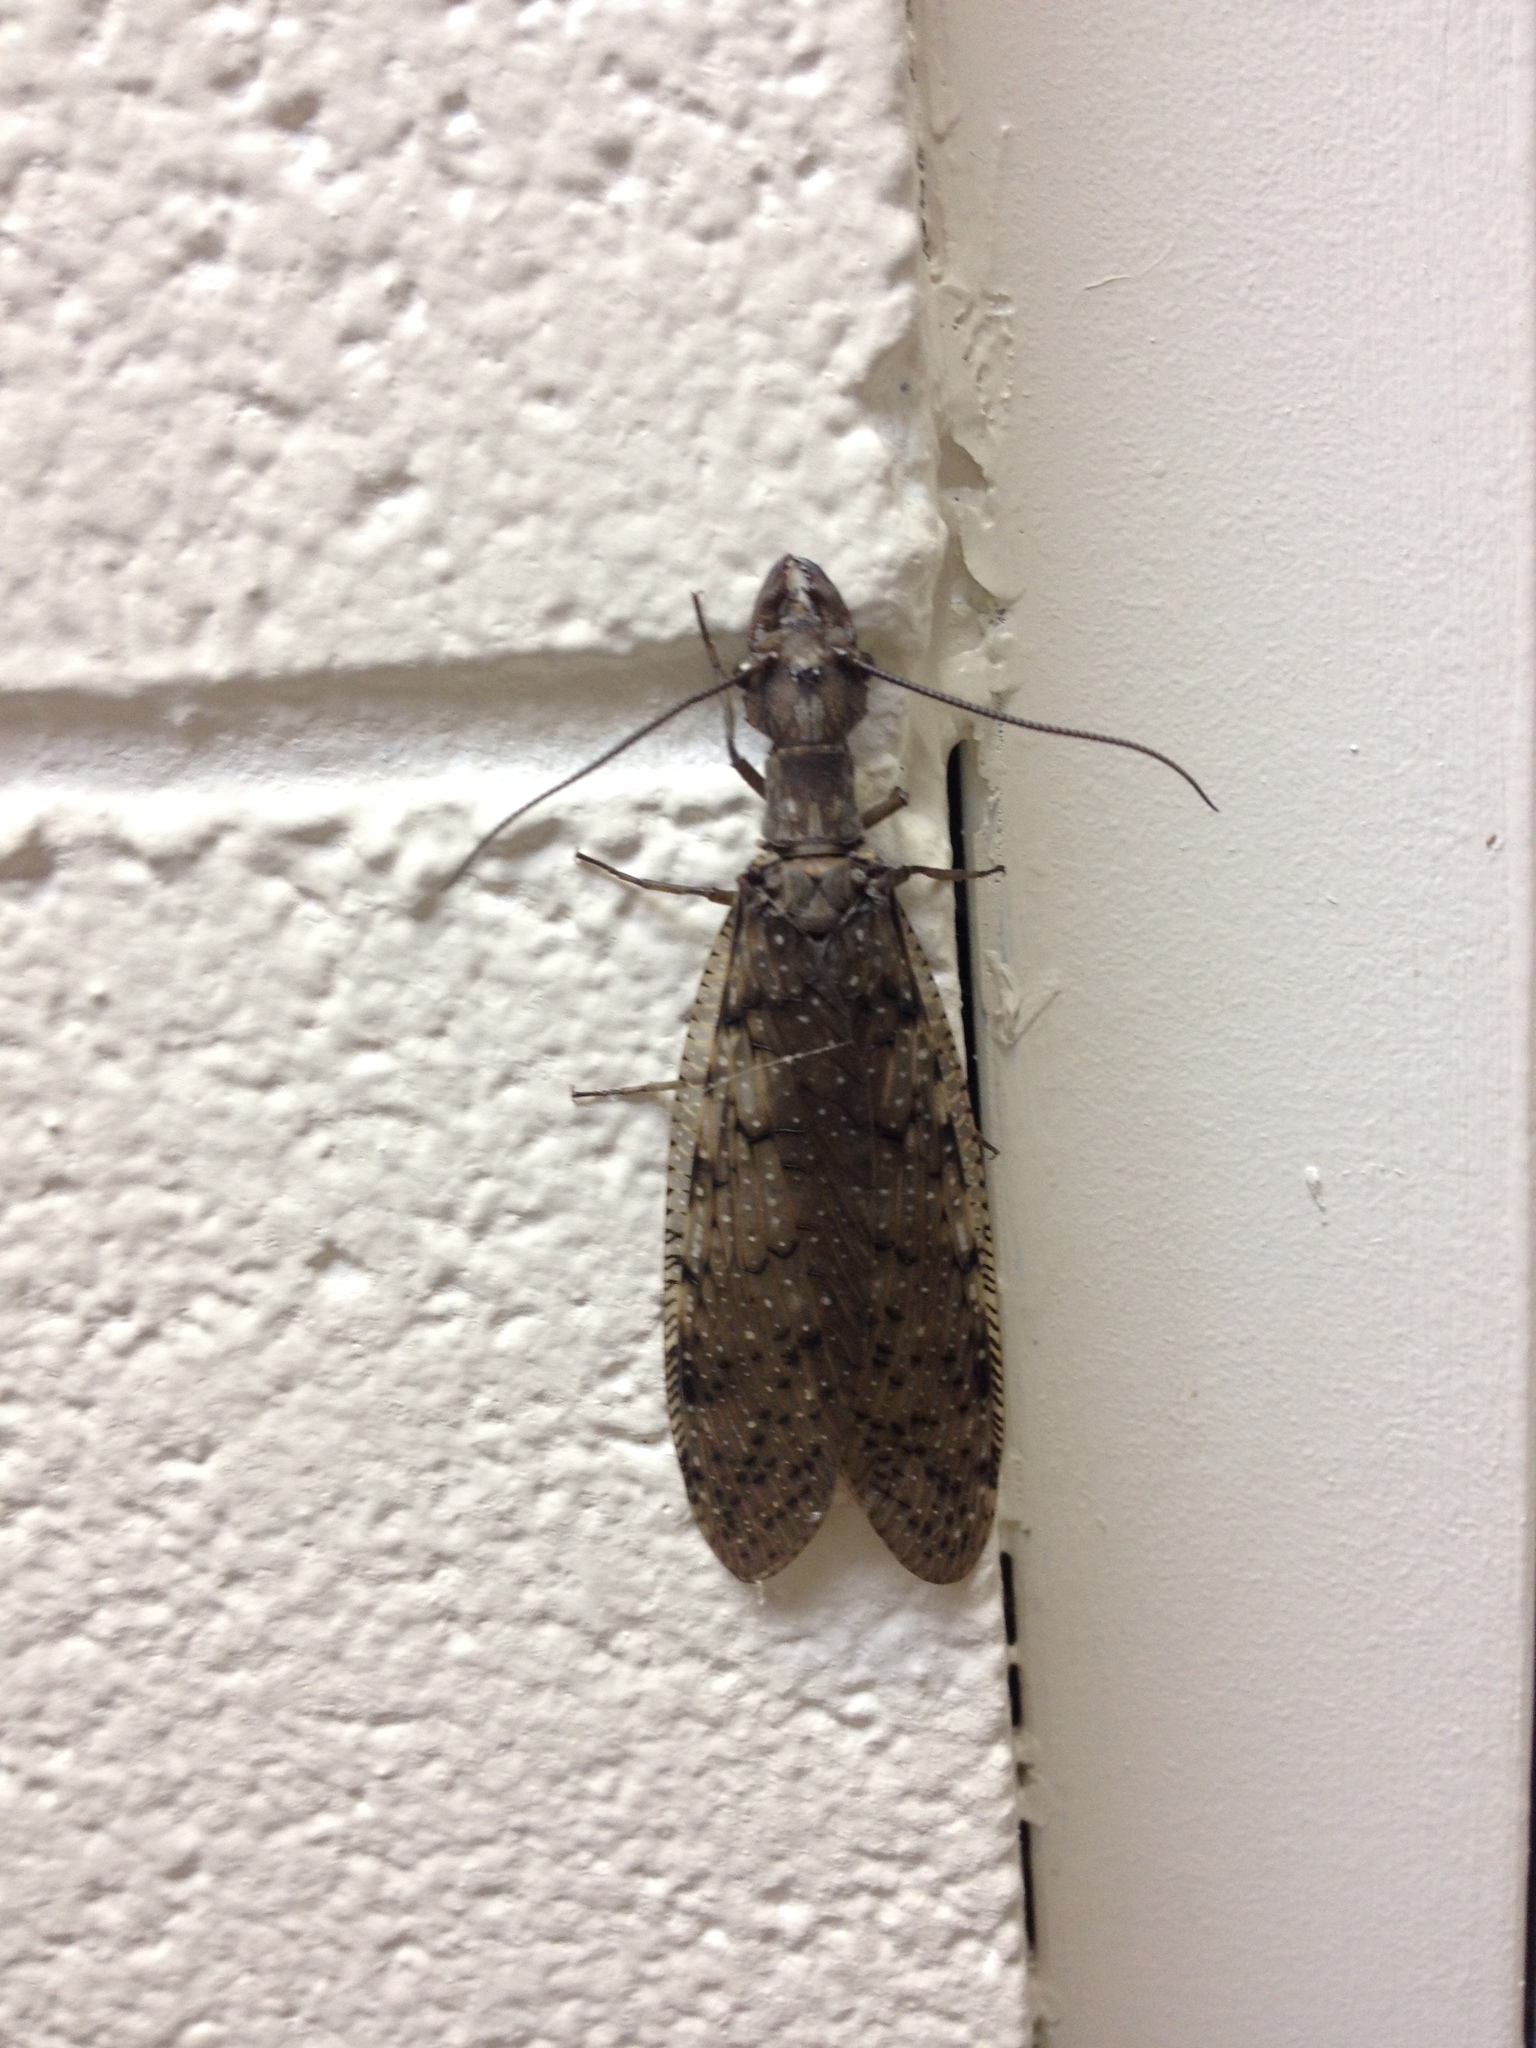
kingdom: Animalia
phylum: Arthropoda
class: Insecta
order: Megaloptera
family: Corydalidae
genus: Corydalus
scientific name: Corydalus cornutus
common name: Dobsonfly
